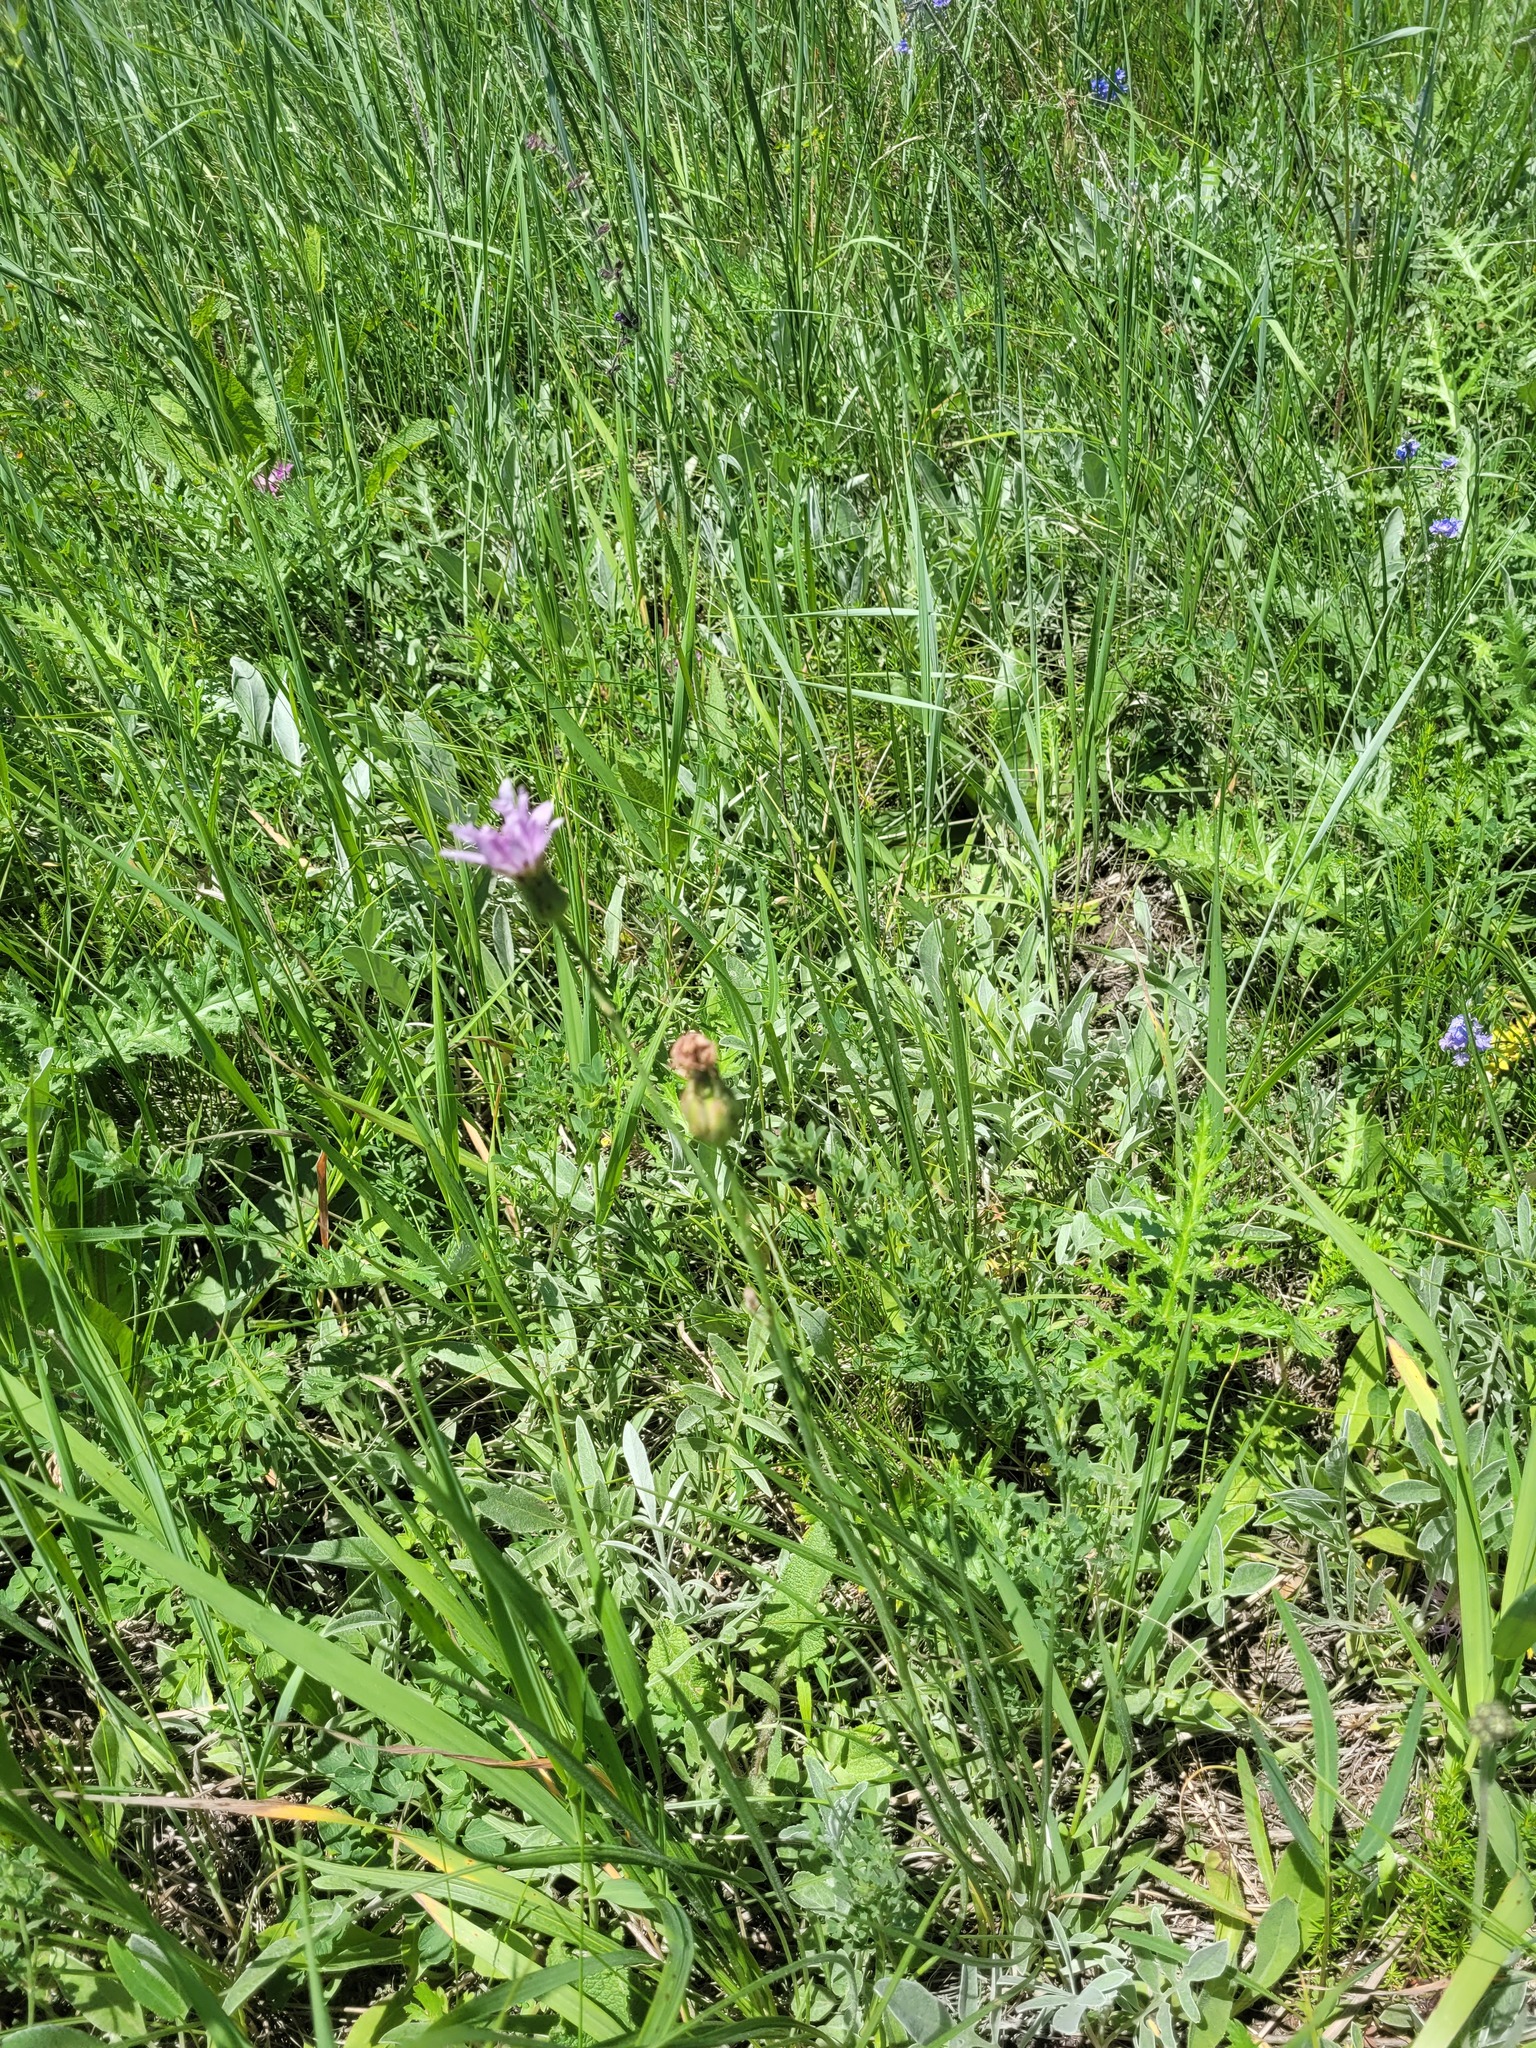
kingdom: Plantae
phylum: Tracheophyta
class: Magnoliopsida
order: Asterales
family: Asteraceae
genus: Scorzonera
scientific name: Scorzonera purpurea
